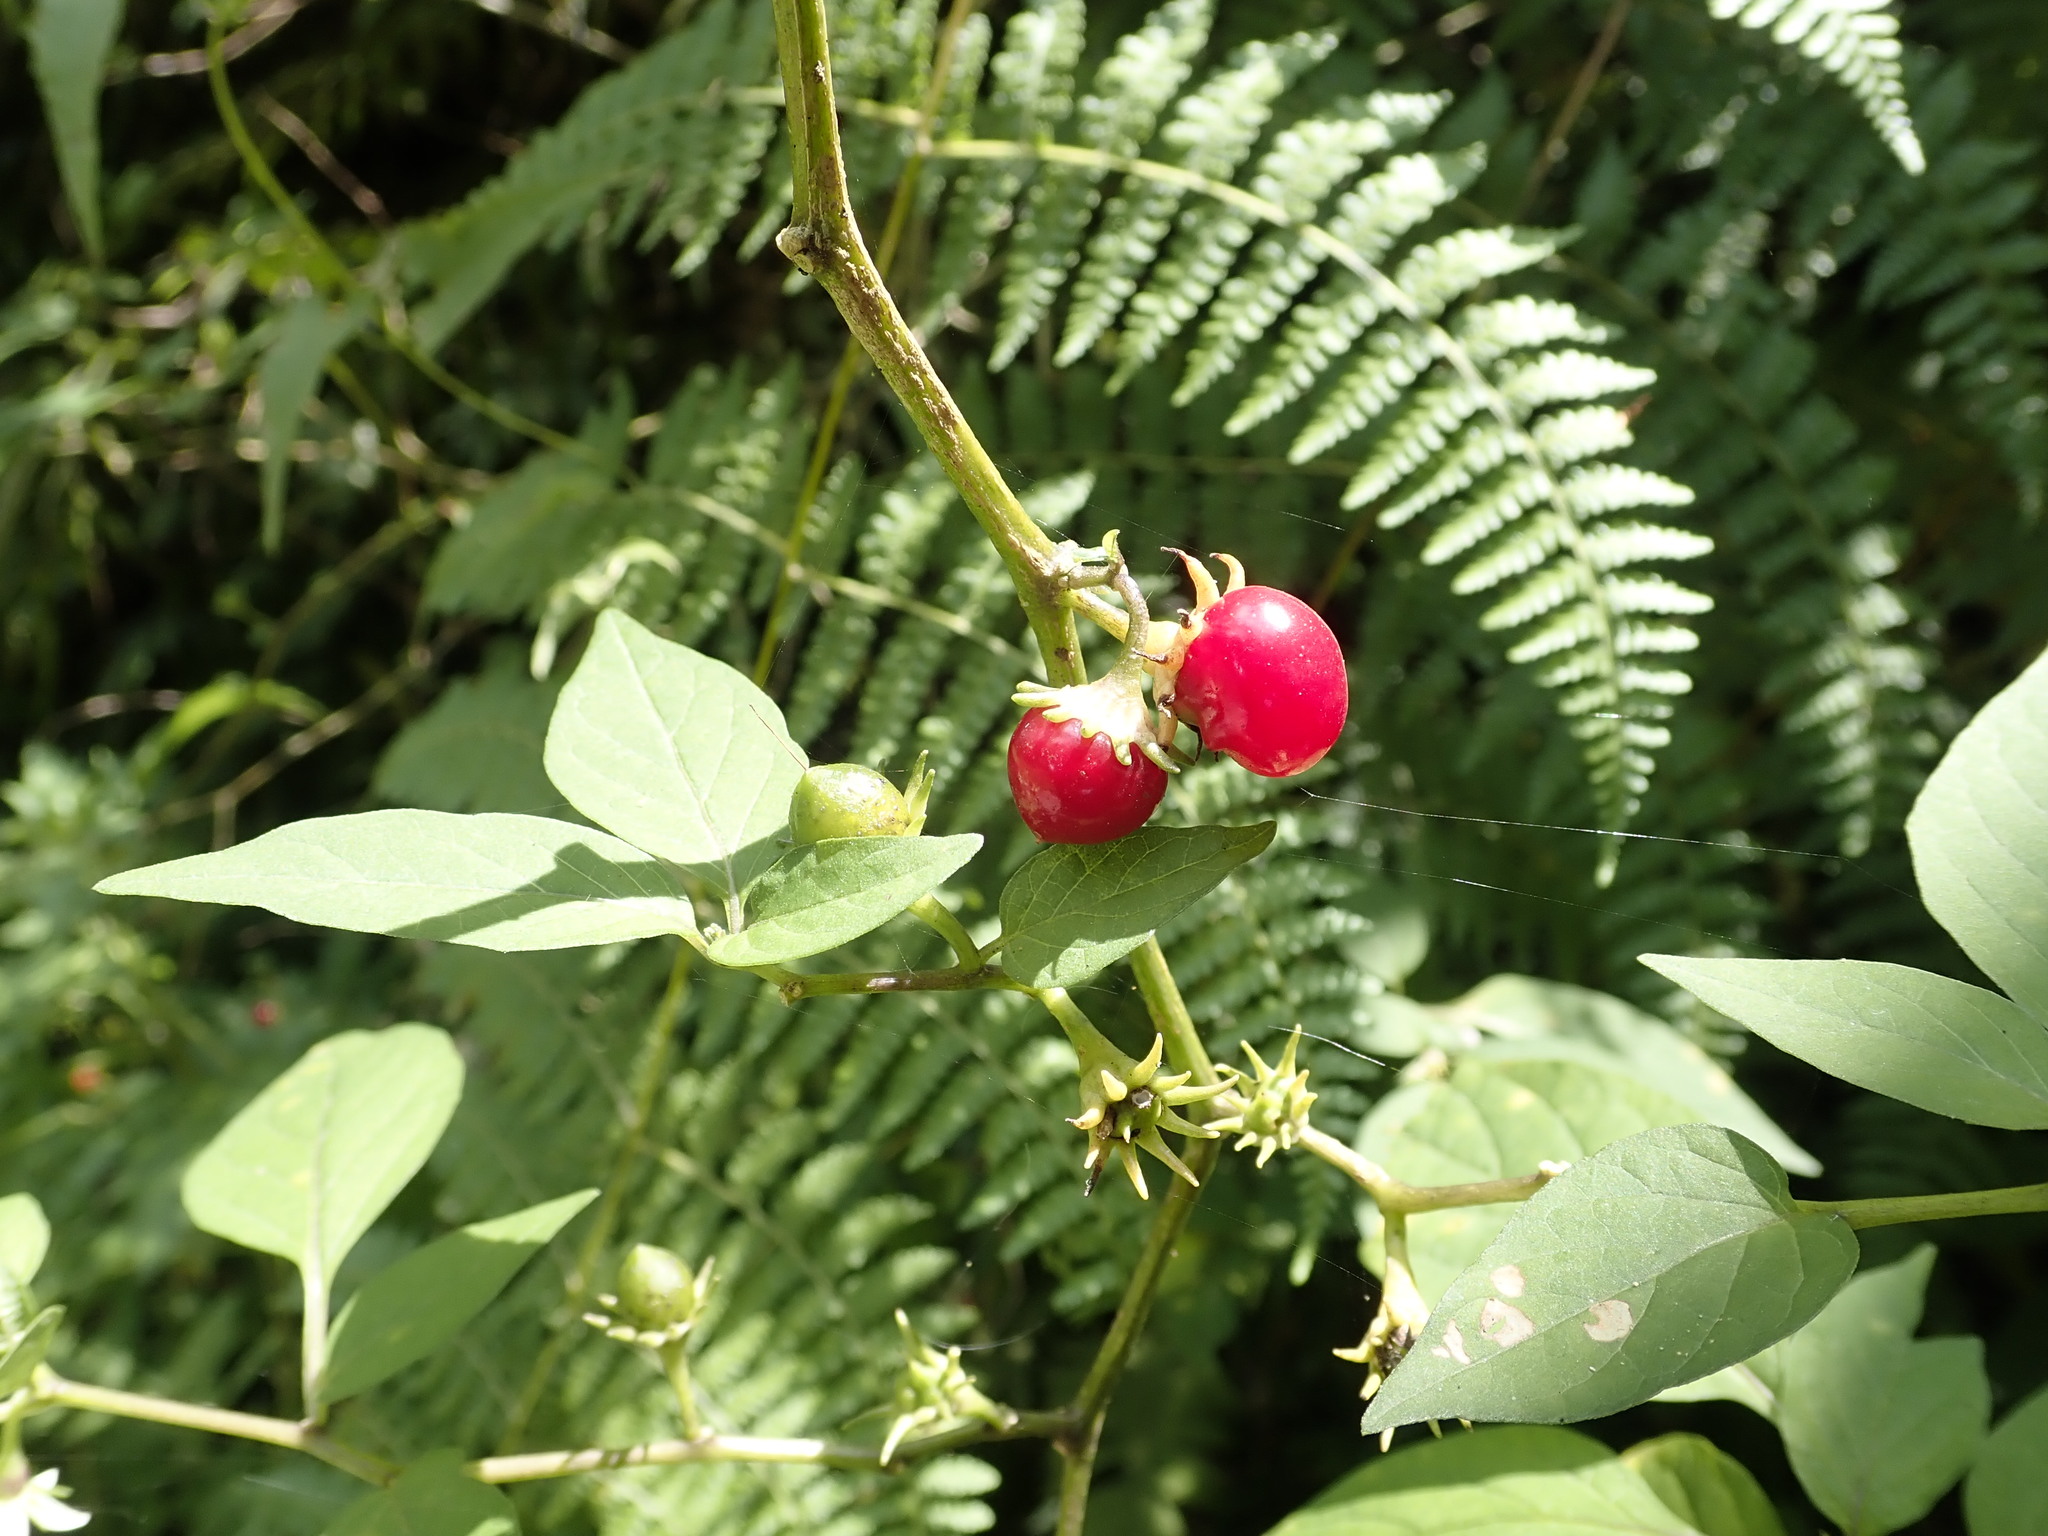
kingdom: Plantae
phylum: Tracheophyta
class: Magnoliopsida
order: Solanales
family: Solanaceae
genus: Lycianthes
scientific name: Lycianthes biflora
